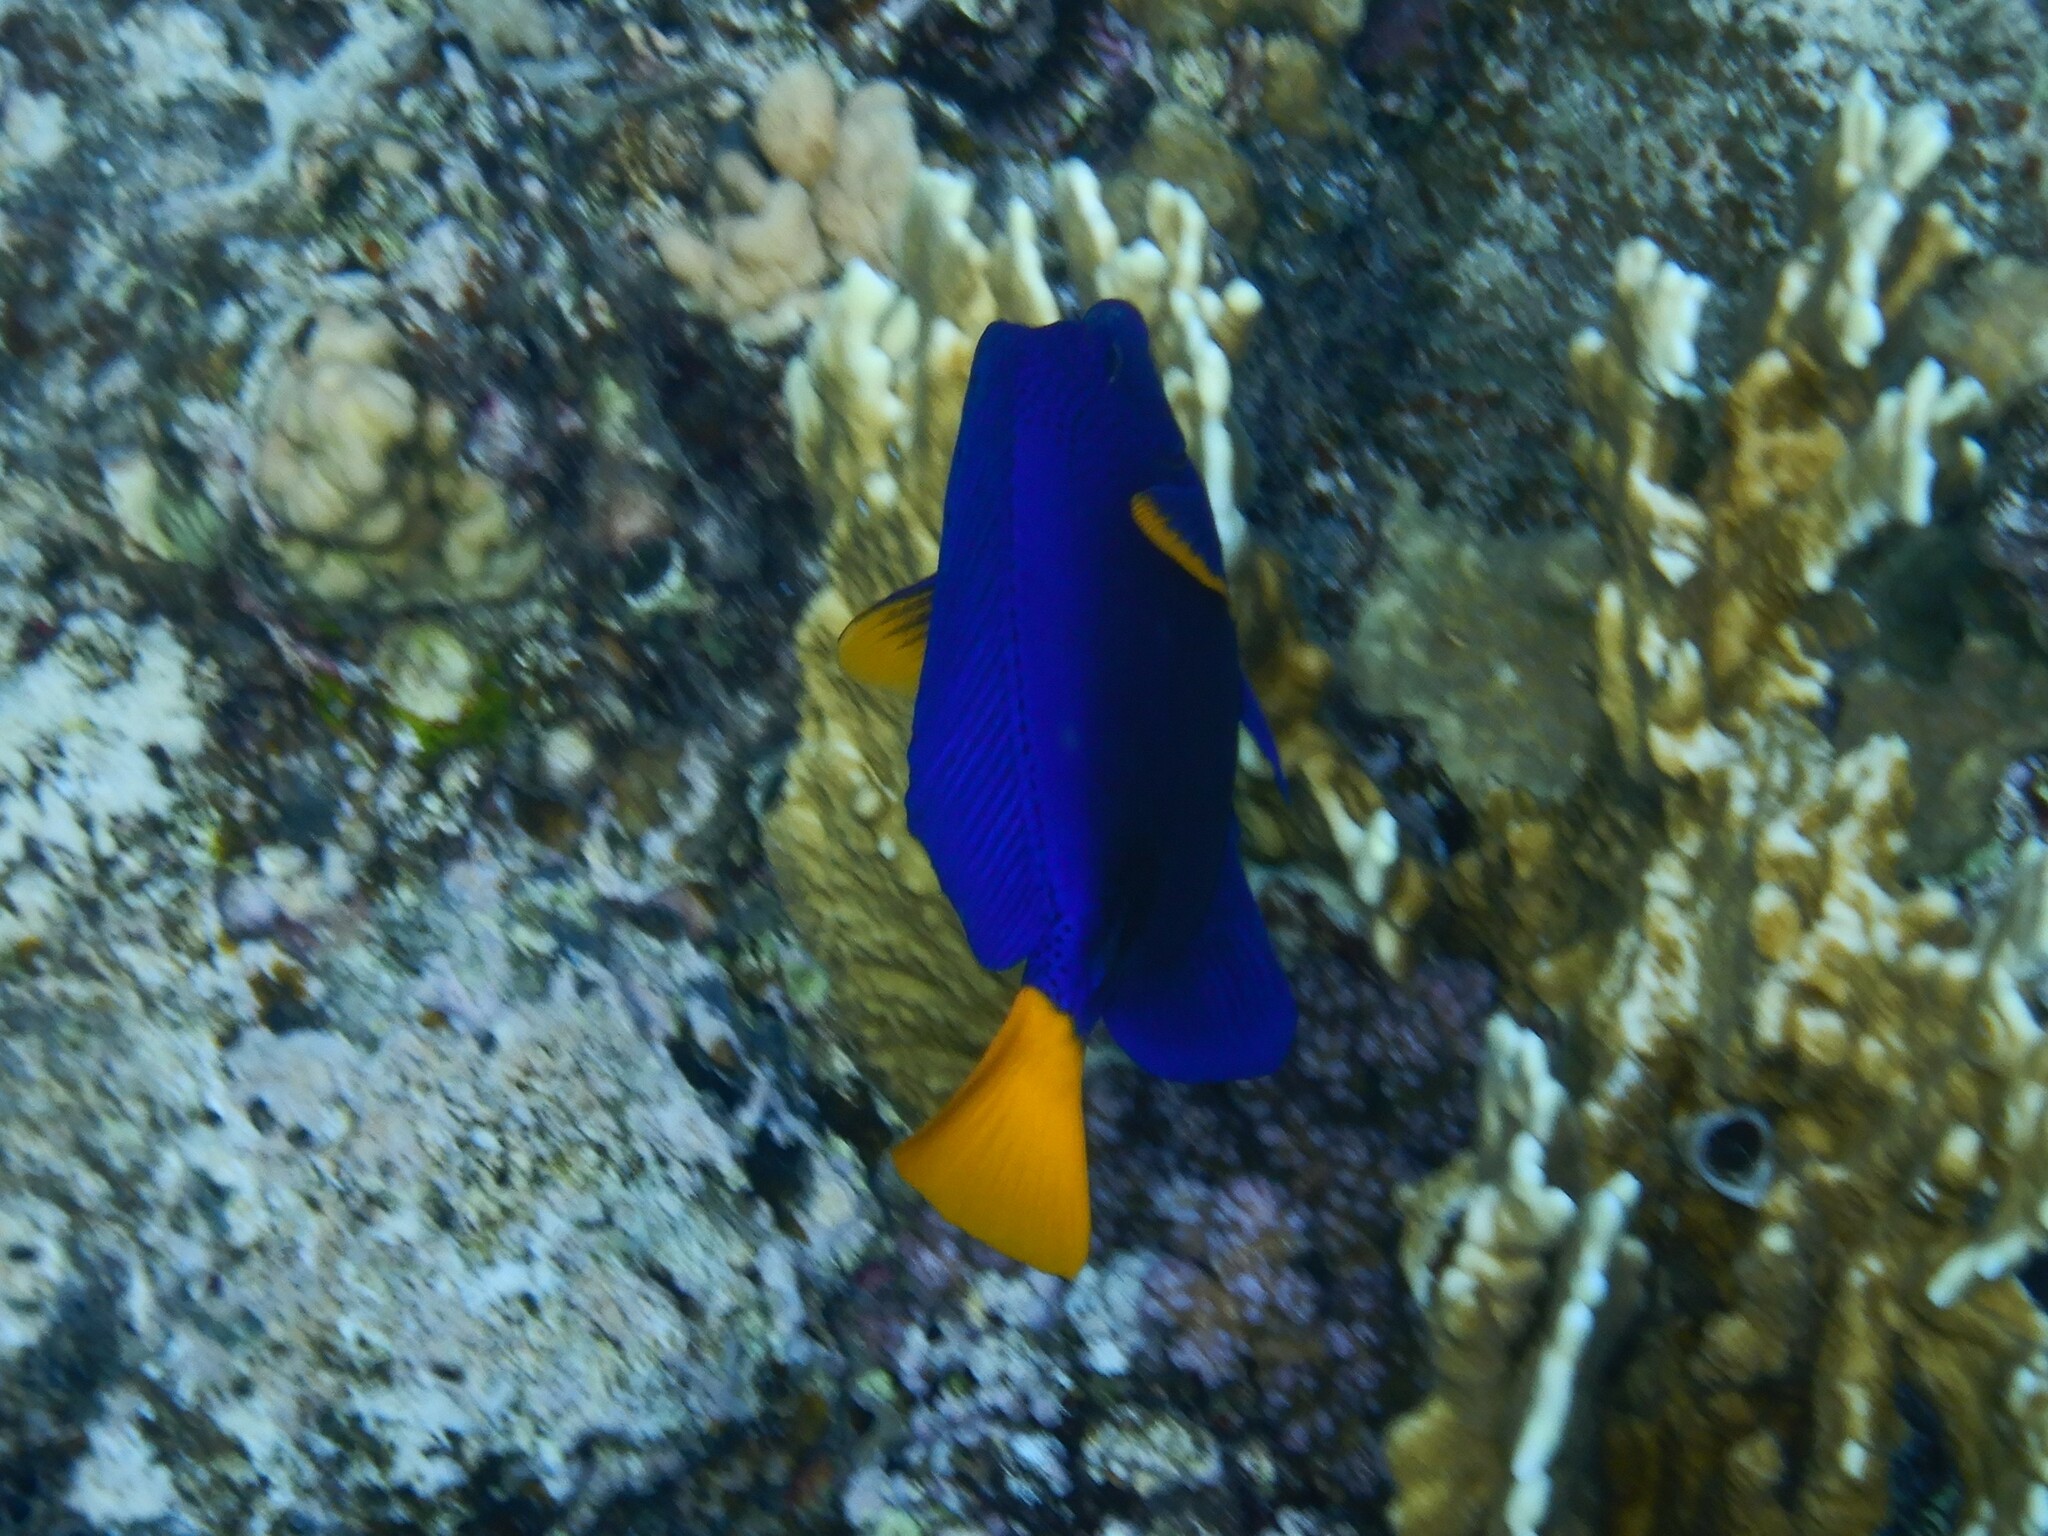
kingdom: Animalia
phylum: Chordata
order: Perciformes
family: Acanthuridae
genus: Zebrasoma
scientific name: Zebrasoma xanthurum
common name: Purple tang
